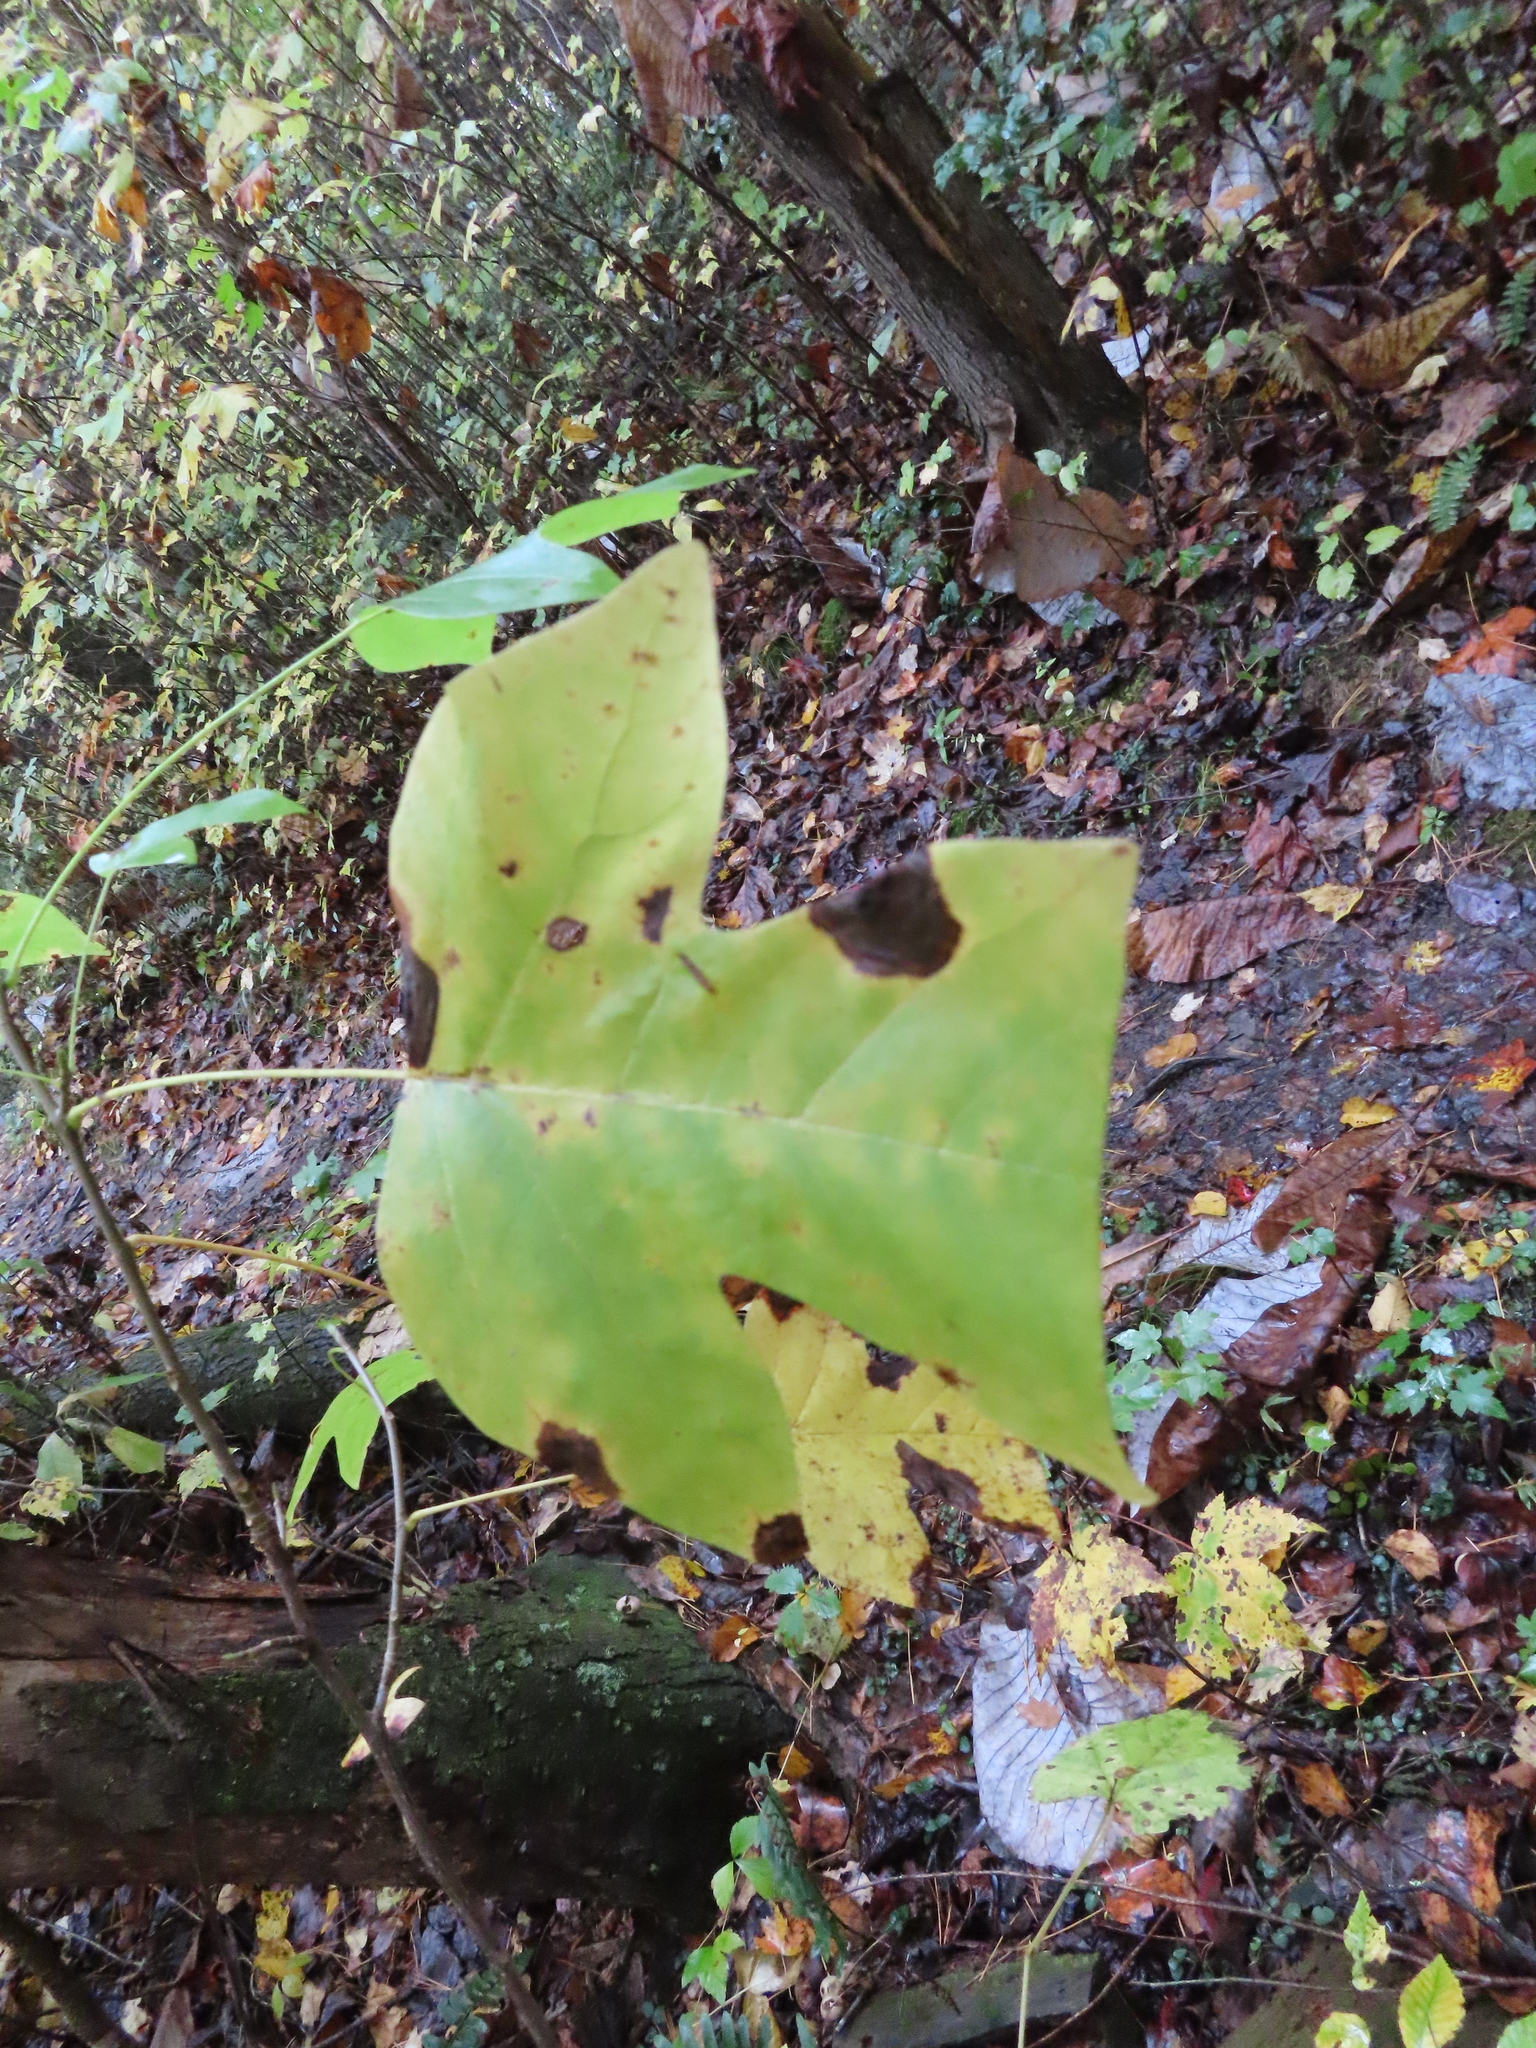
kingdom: Plantae
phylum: Tracheophyta
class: Magnoliopsida
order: Magnoliales
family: Magnoliaceae
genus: Liriodendron
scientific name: Liriodendron tulipifera
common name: Tulip tree
